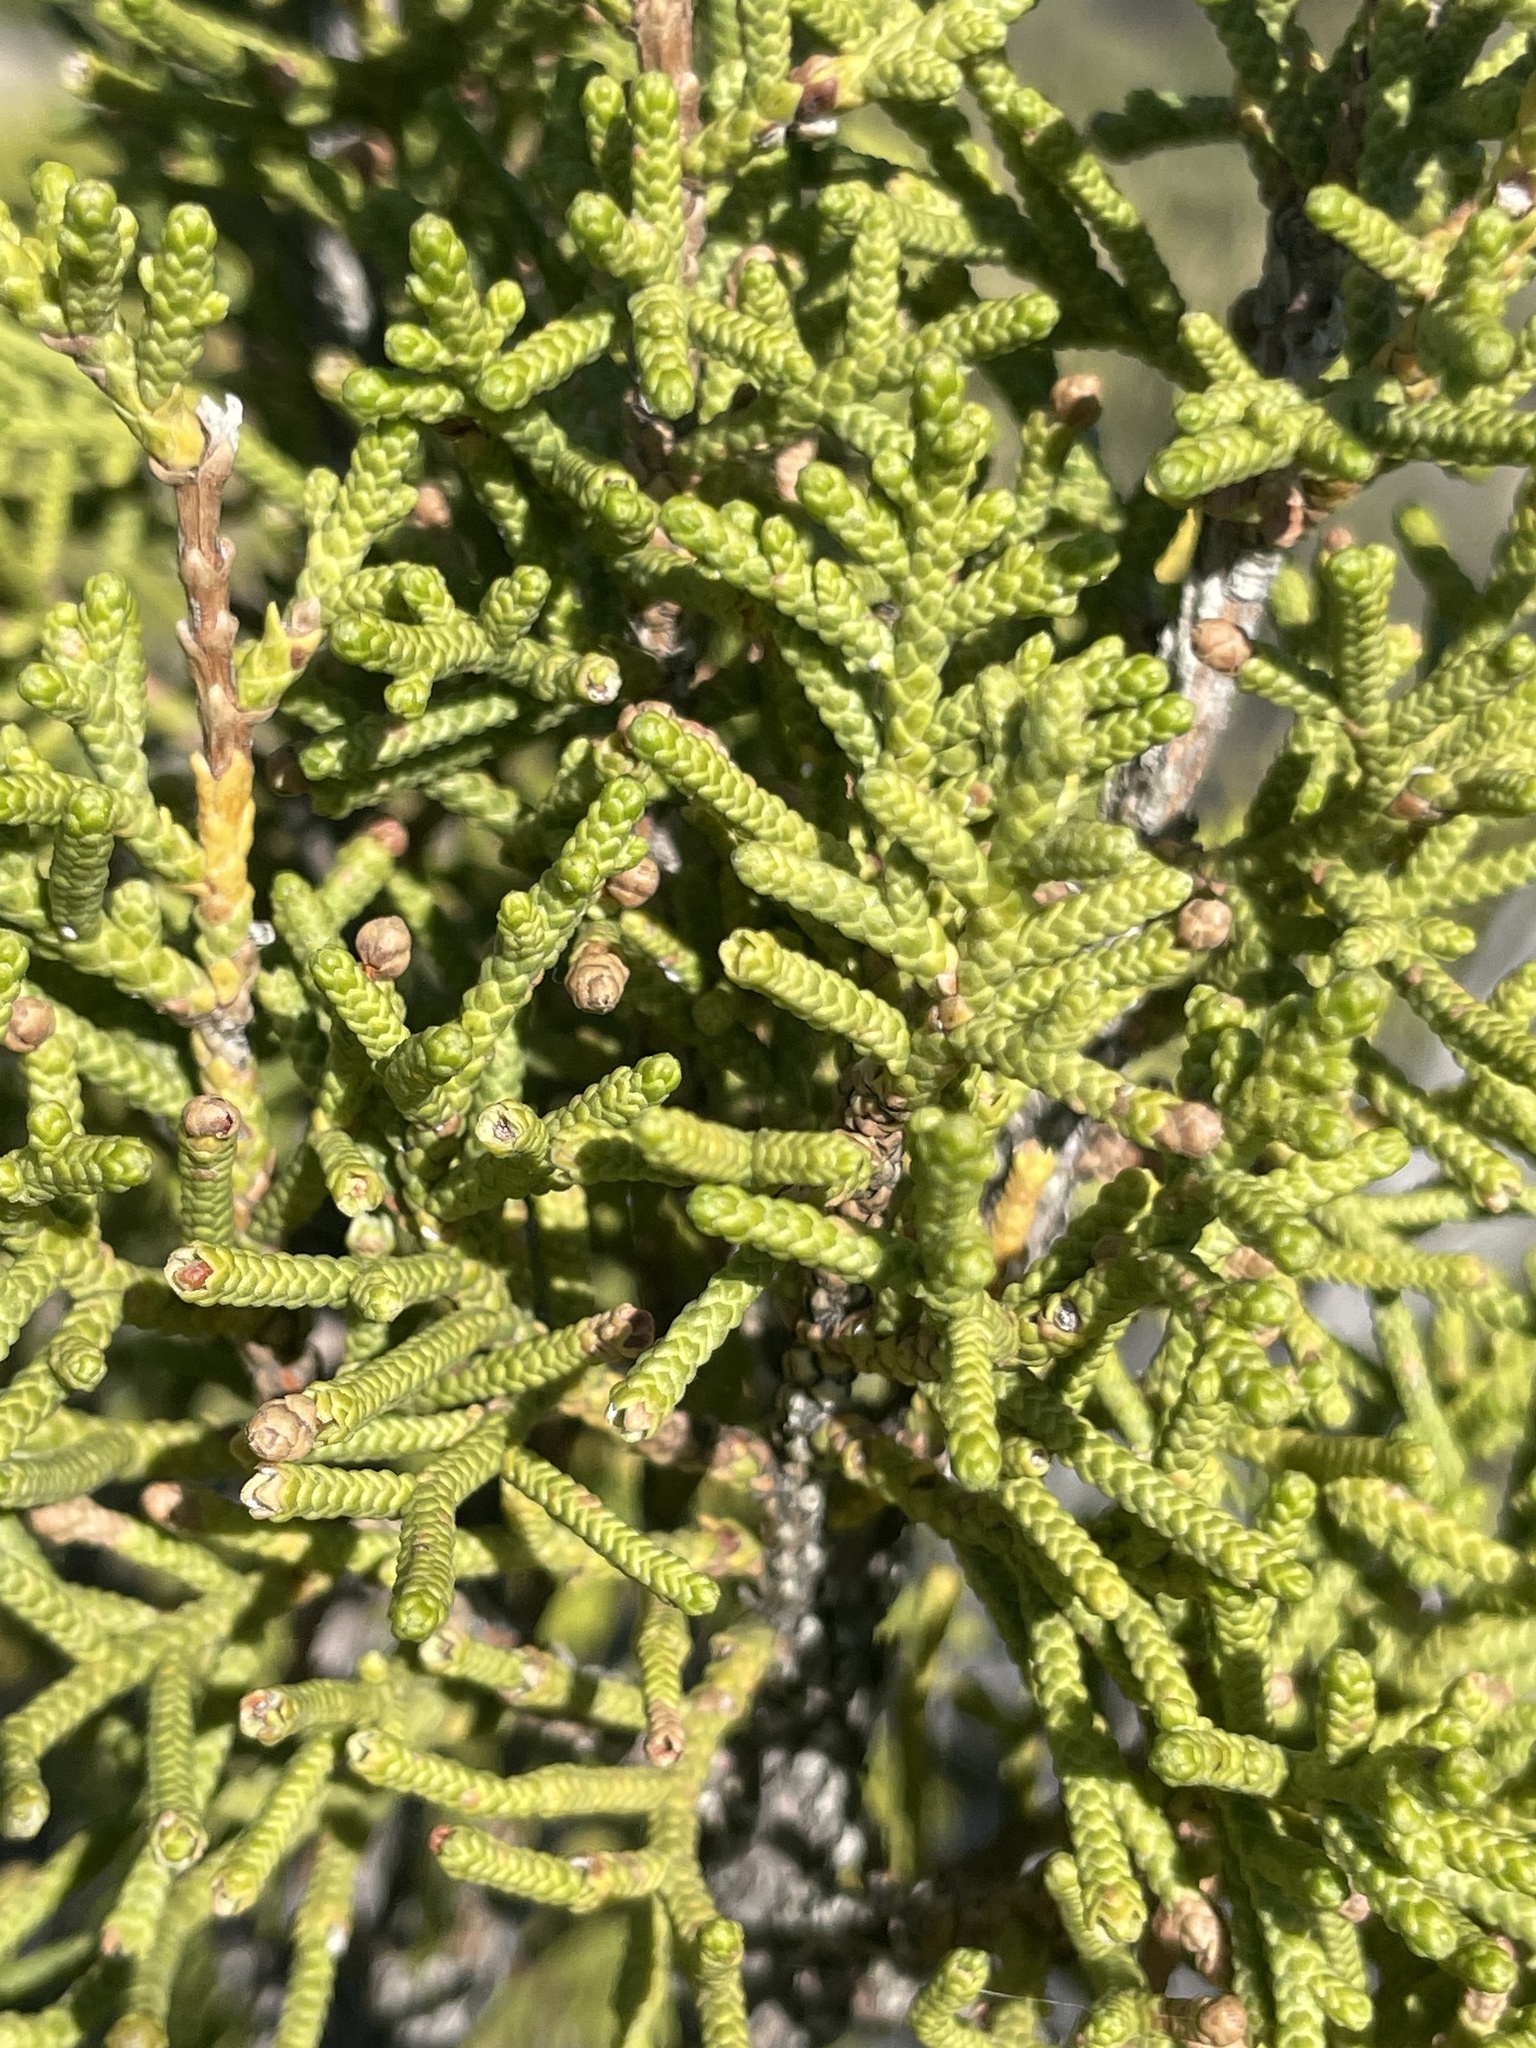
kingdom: Plantae
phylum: Tracheophyta
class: Pinopsida
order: Pinales
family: Cupressaceae
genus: Juniperus
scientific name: Juniperus californica
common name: California juniper
